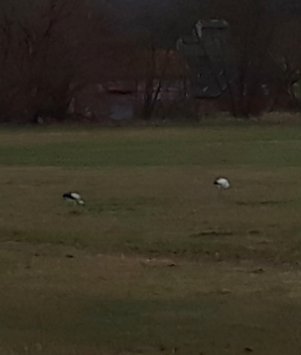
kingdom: Animalia
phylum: Chordata
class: Aves
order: Ciconiiformes
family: Ciconiidae
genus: Ciconia
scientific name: Ciconia ciconia
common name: White stork
